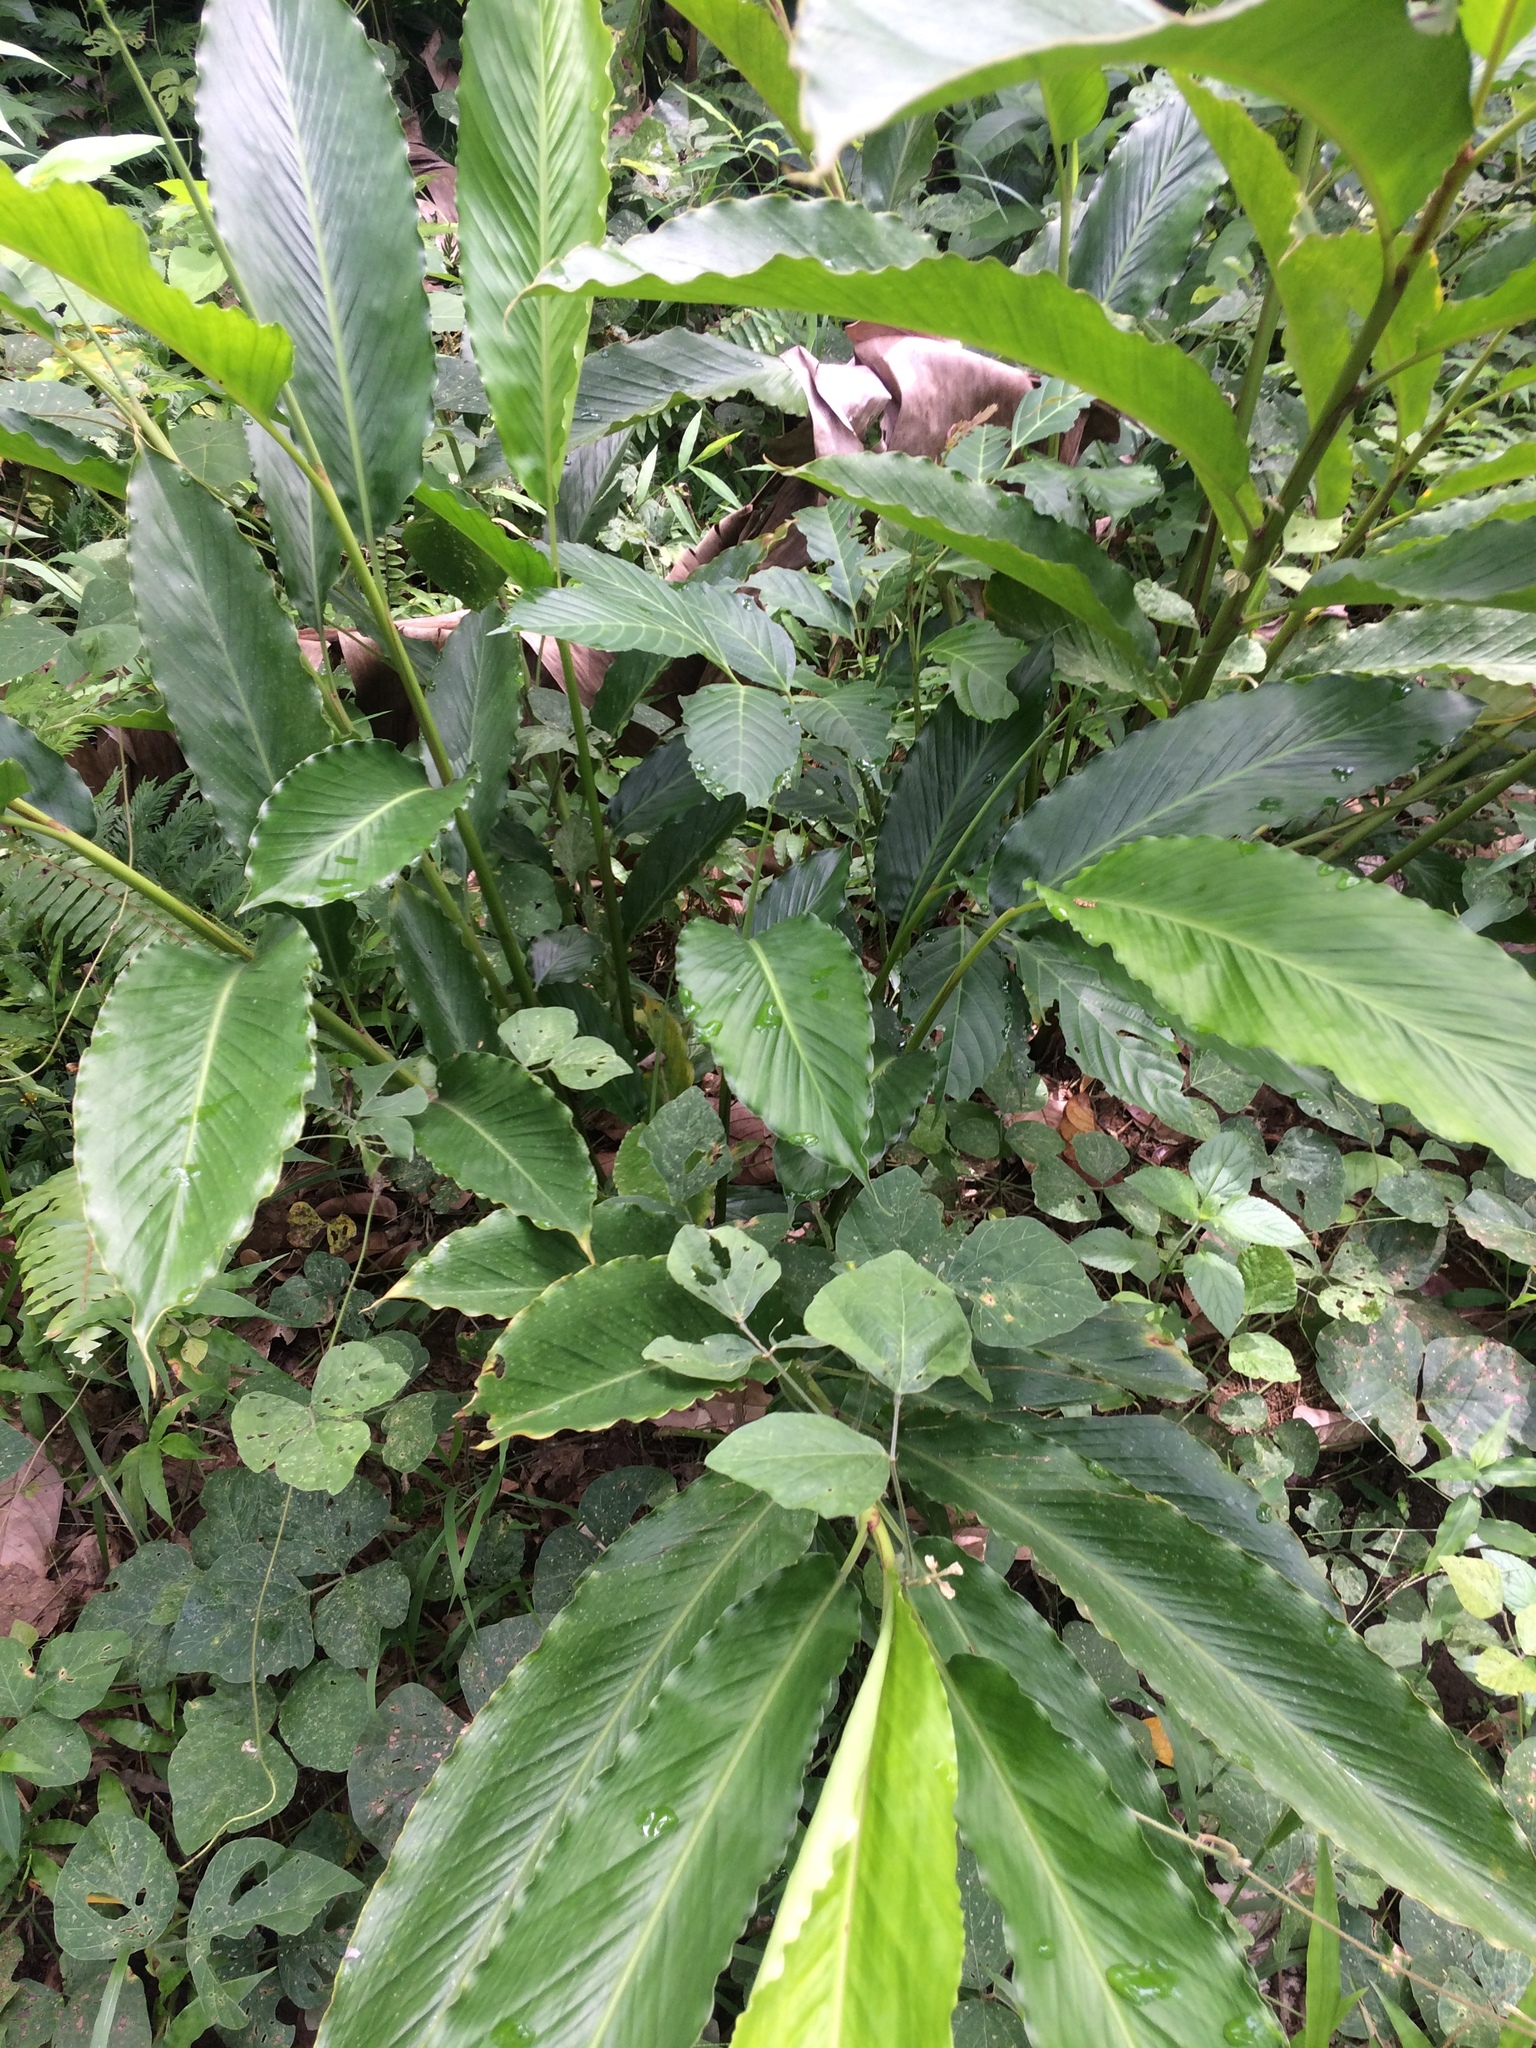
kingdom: Plantae
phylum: Tracheophyta
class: Liliopsida
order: Zingiberales
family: Zingiberaceae
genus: Alpinia
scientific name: Alpinia zerumbet
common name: Shellplant
